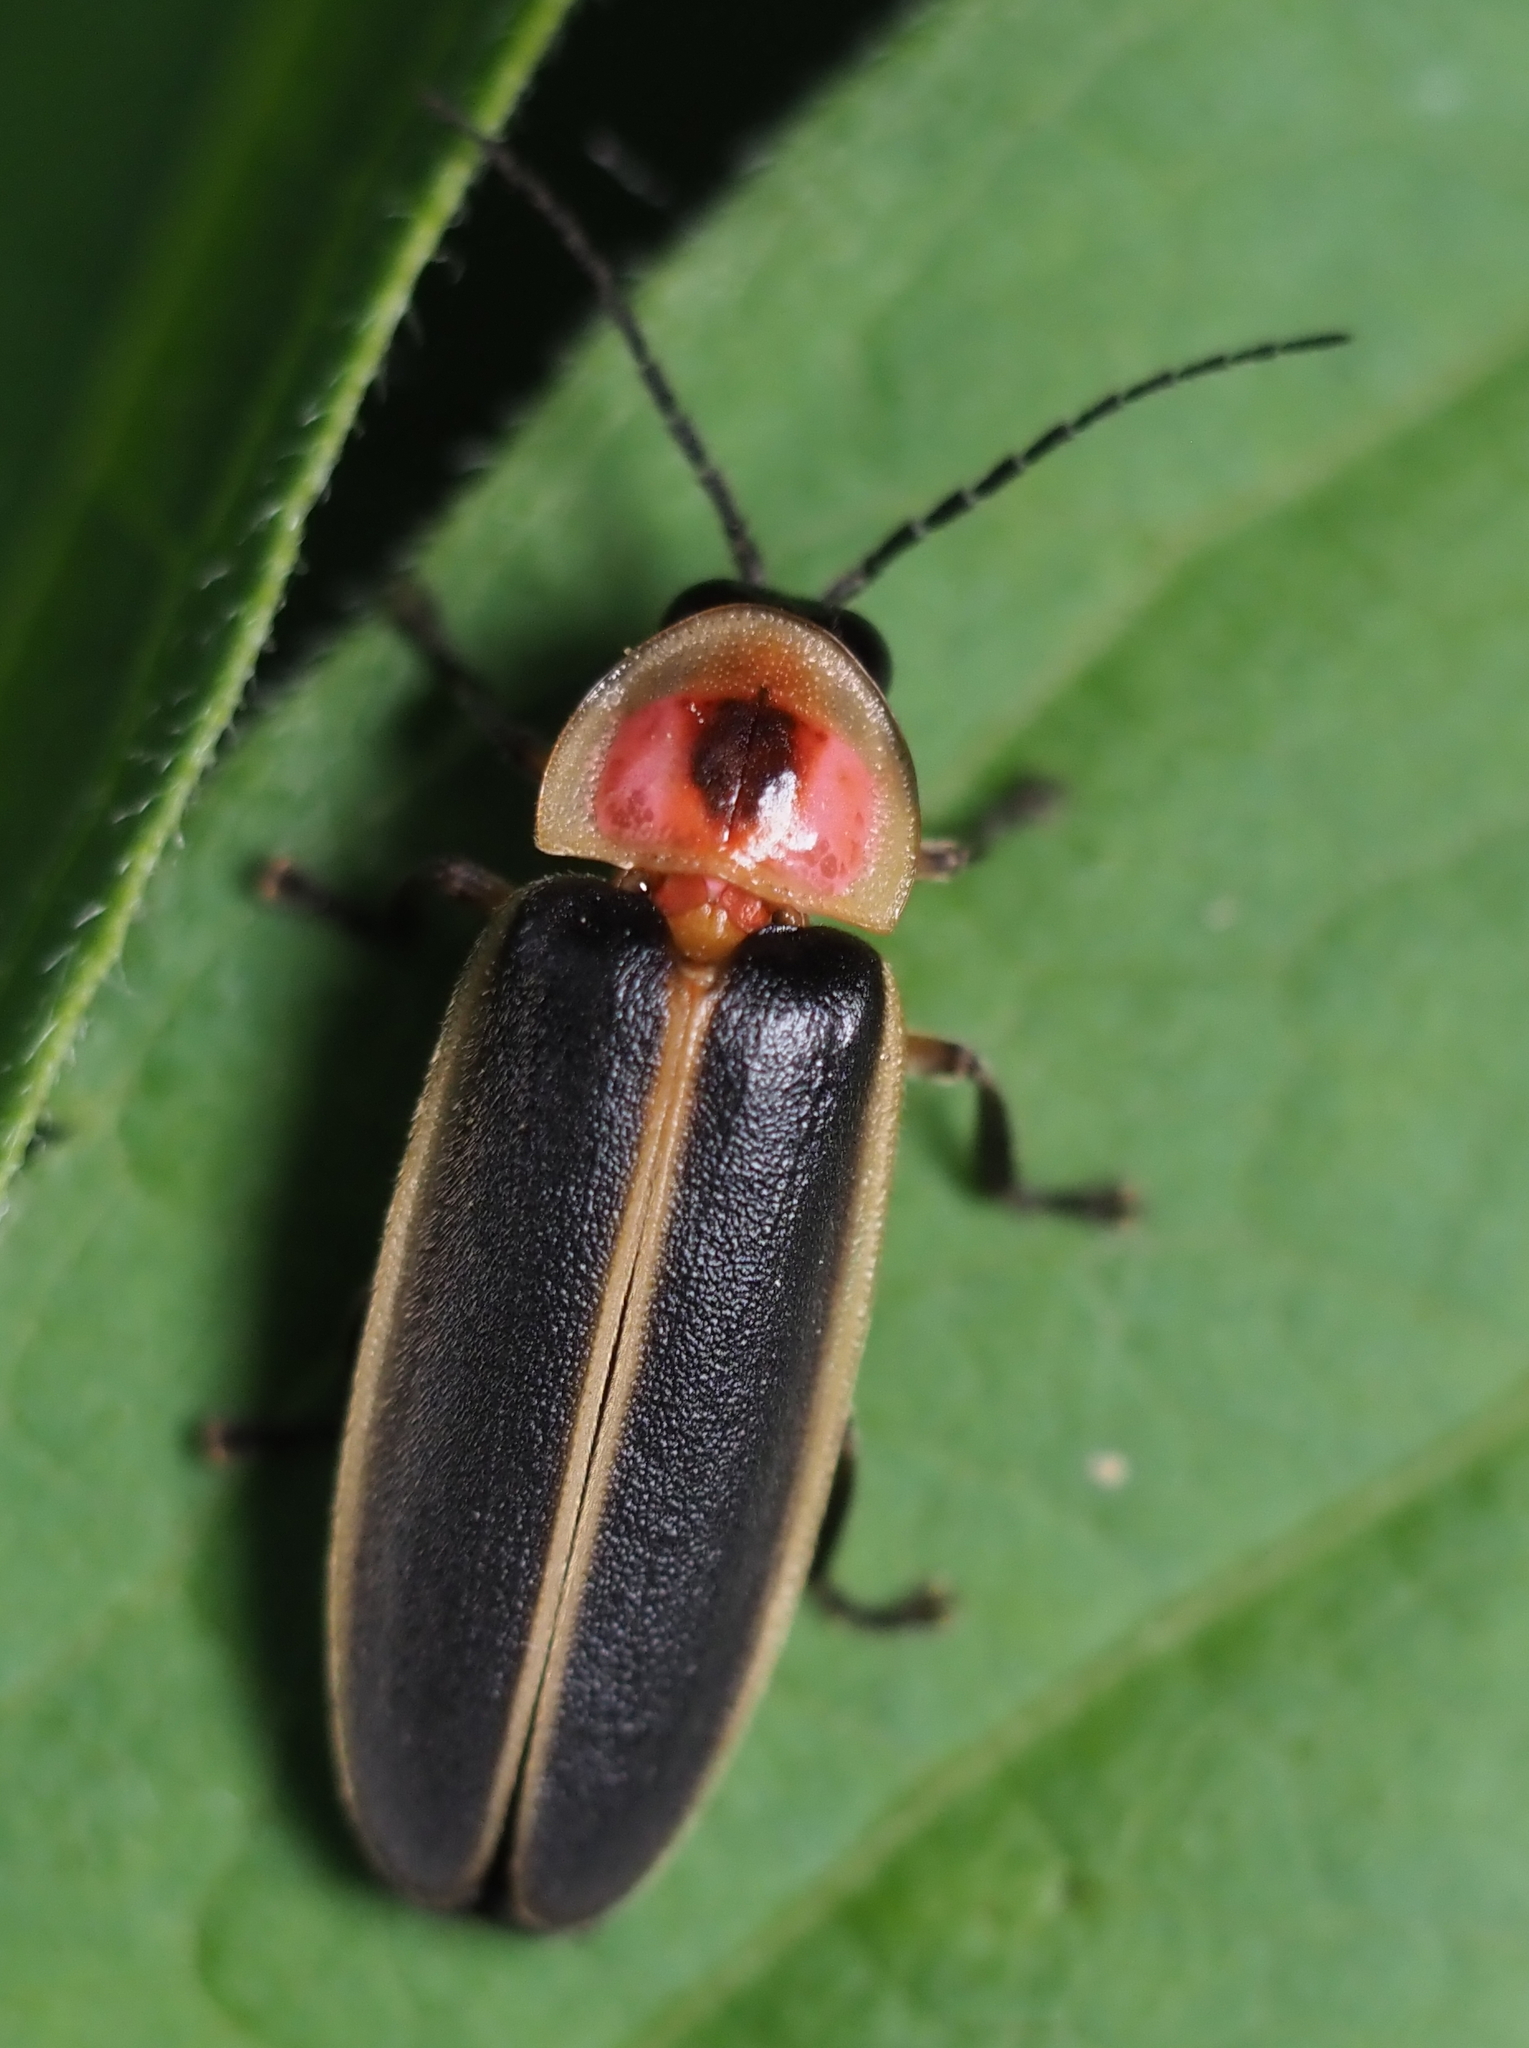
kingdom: Animalia
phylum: Arthropoda
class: Insecta
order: Coleoptera
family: Lampyridae
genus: Photinus
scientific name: Photinus pyralis
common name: Big dipper firefly
